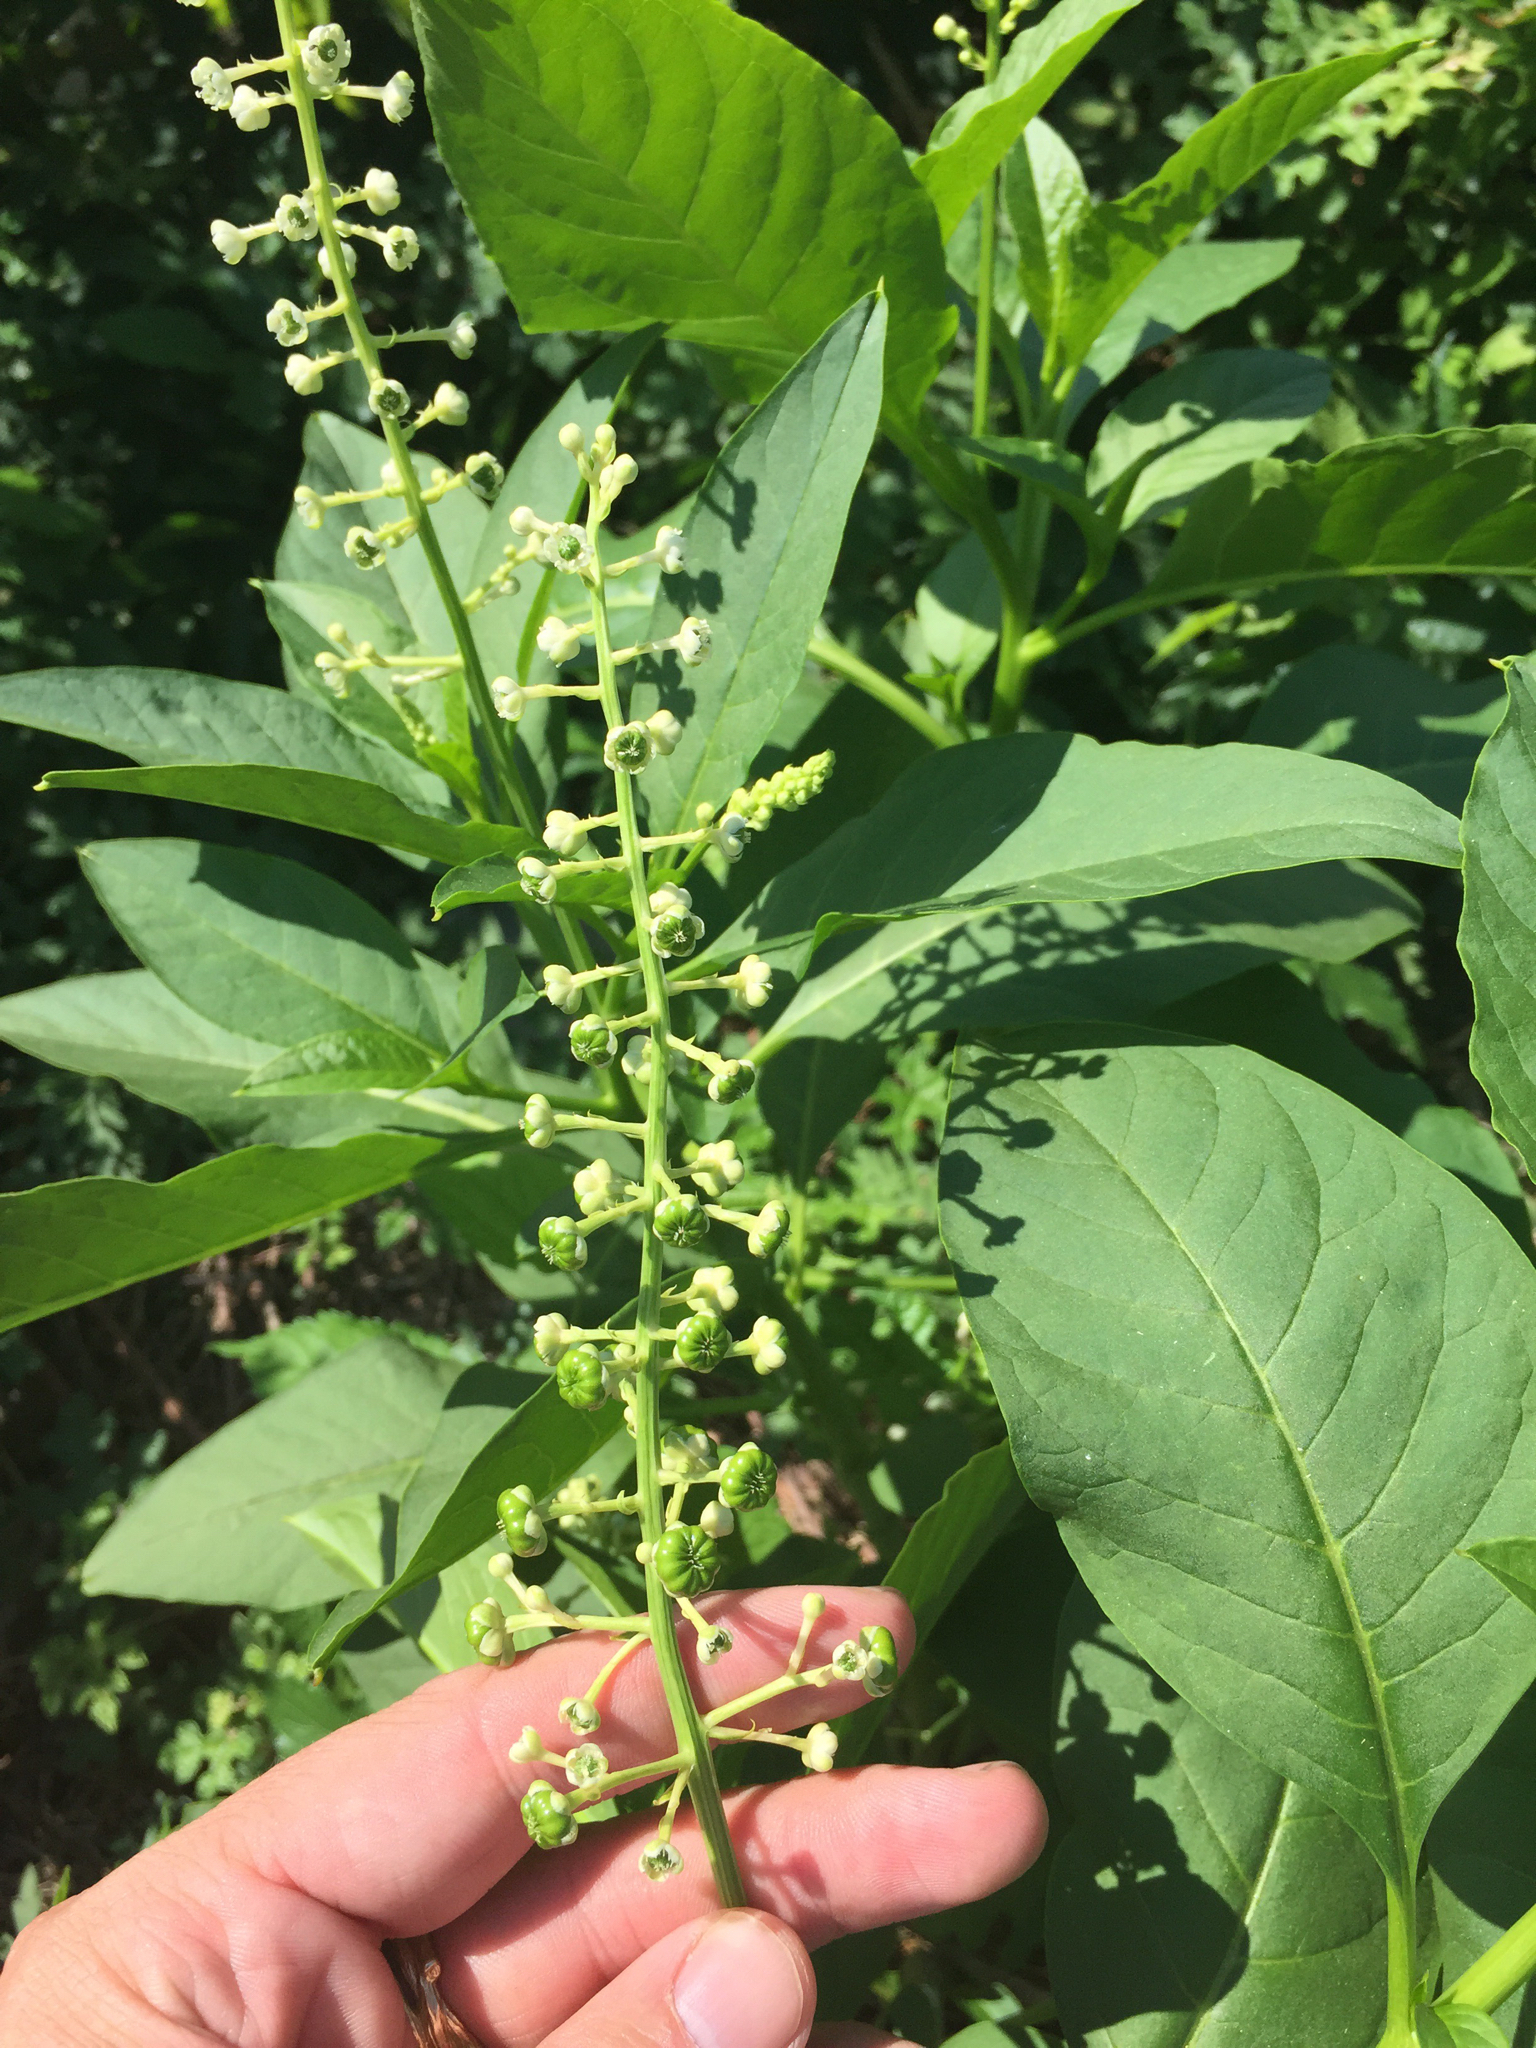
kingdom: Plantae
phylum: Tracheophyta
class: Magnoliopsida
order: Caryophyllales
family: Phytolaccaceae
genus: Phytolacca
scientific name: Phytolacca americana
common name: American pokeweed
